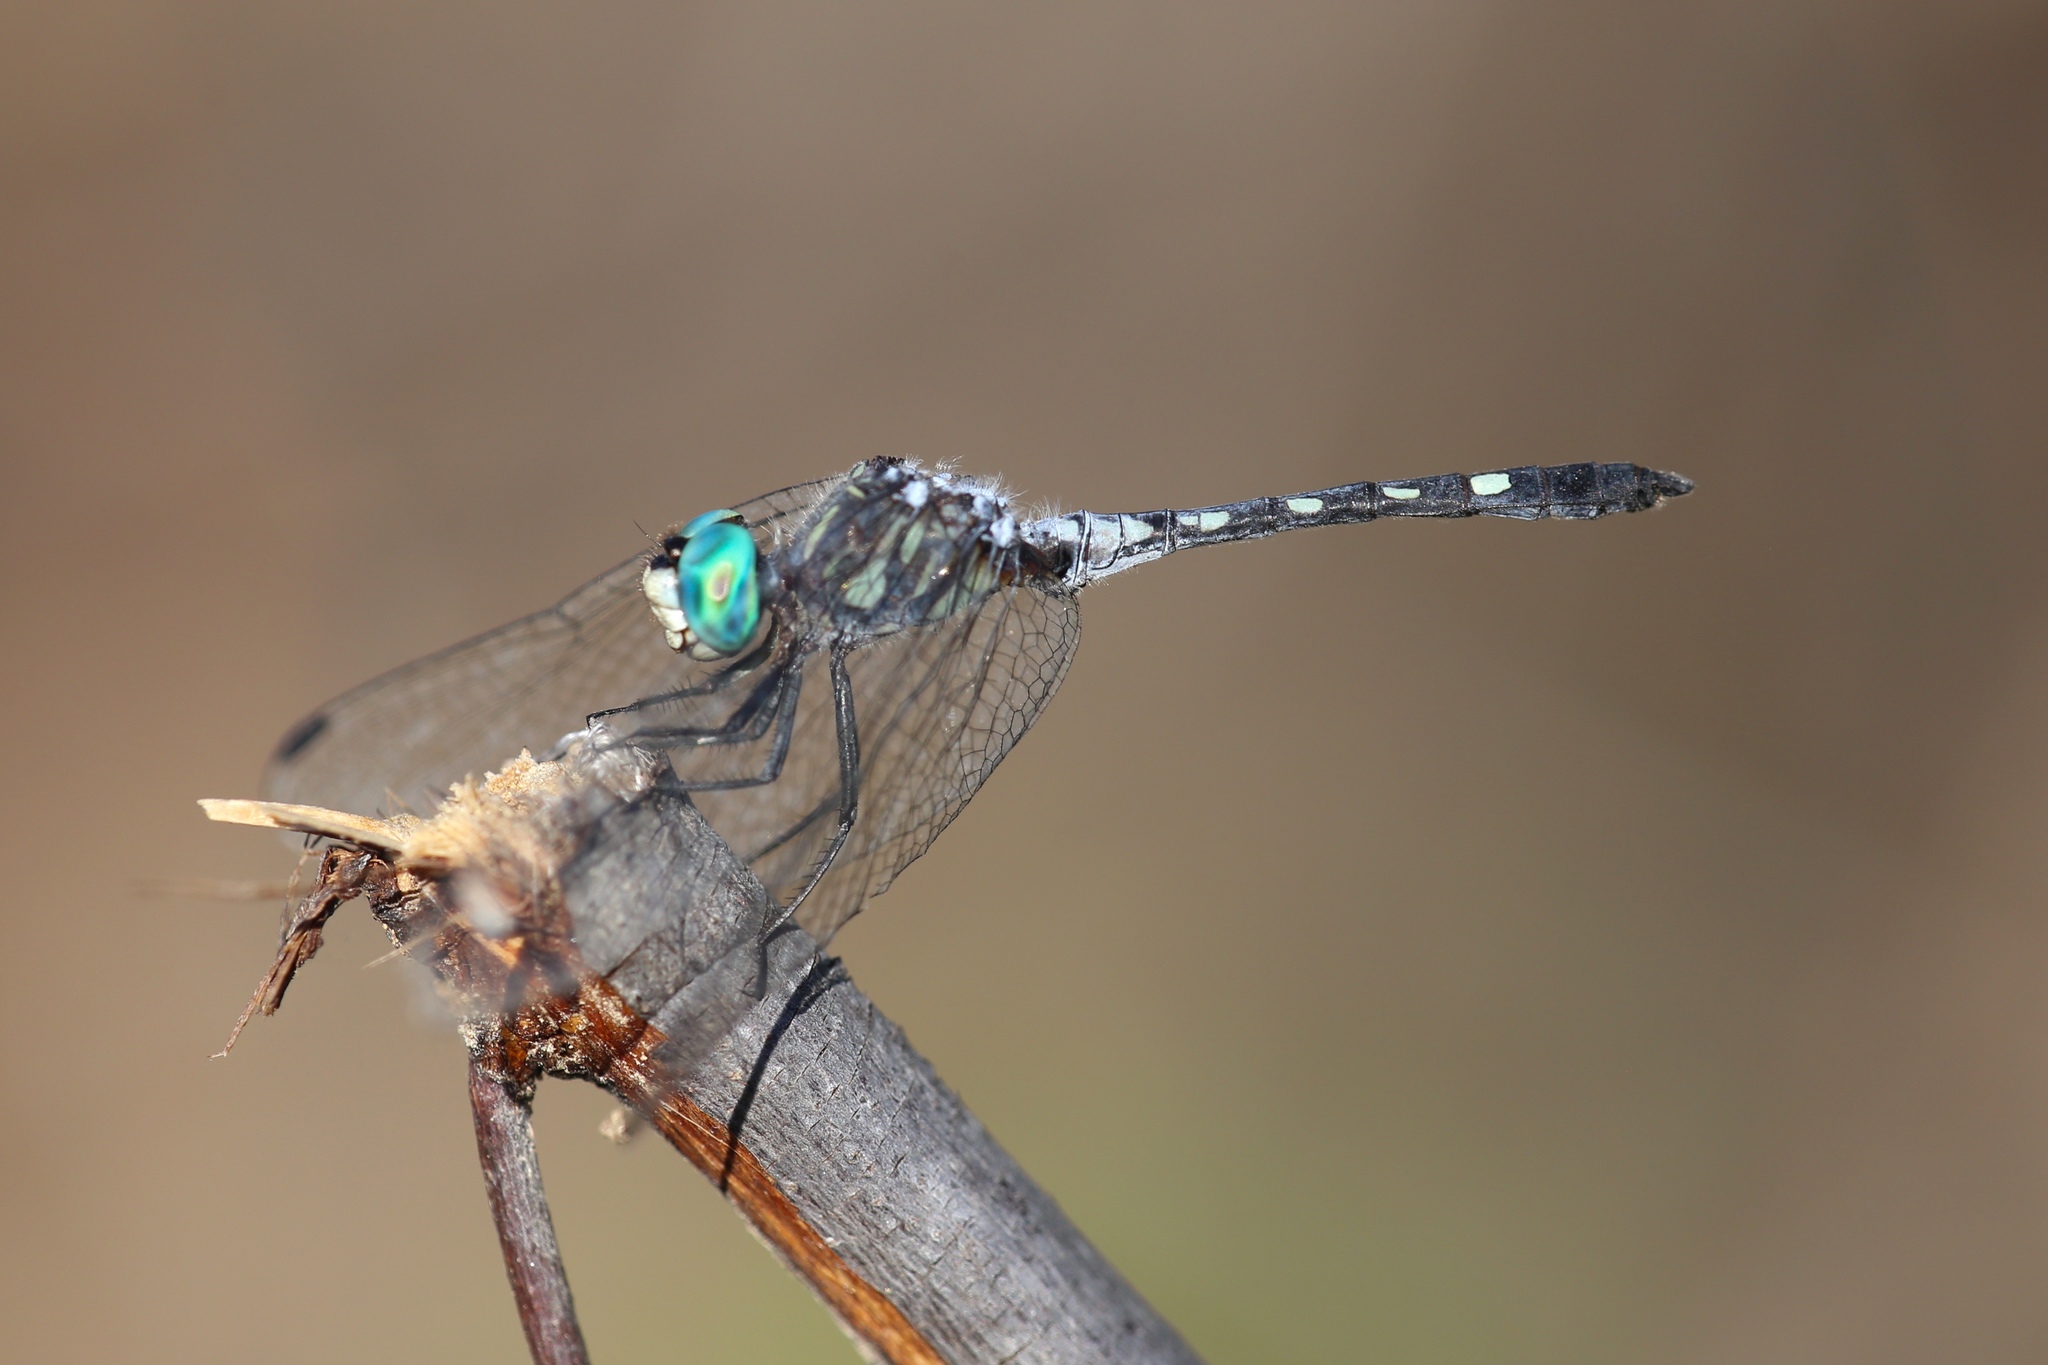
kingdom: Animalia
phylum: Arthropoda
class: Insecta
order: Odonata
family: Libellulidae
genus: Micrathyria
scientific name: Micrathyria hagenii
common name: Thornbush dasher
